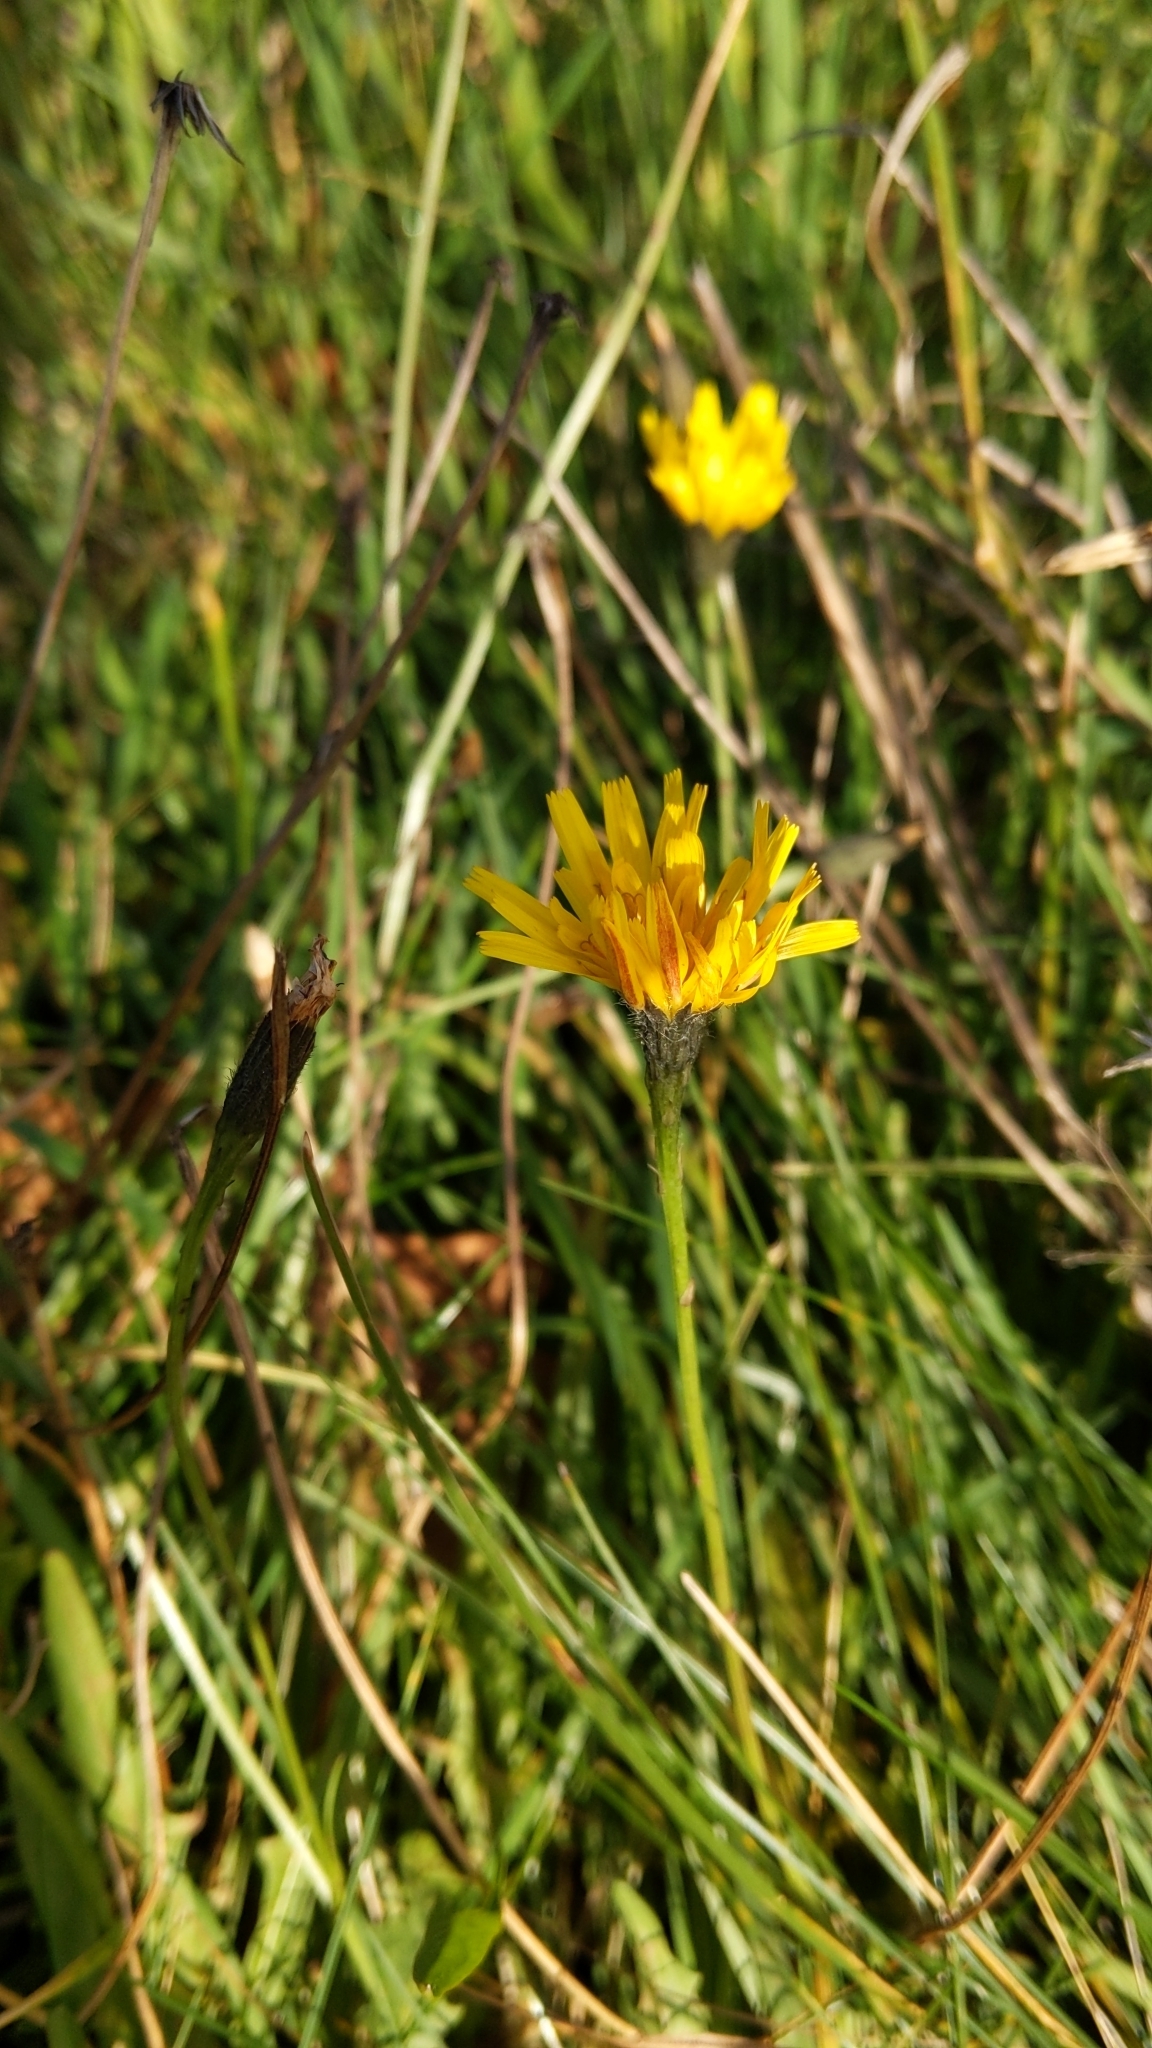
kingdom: Plantae
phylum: Tracheophyta
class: Magnoliopsida
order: Asterales
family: Asteraceae
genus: Scorzoneroides
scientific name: Scorzoneroides autumnalis
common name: Autumn hawkbit
